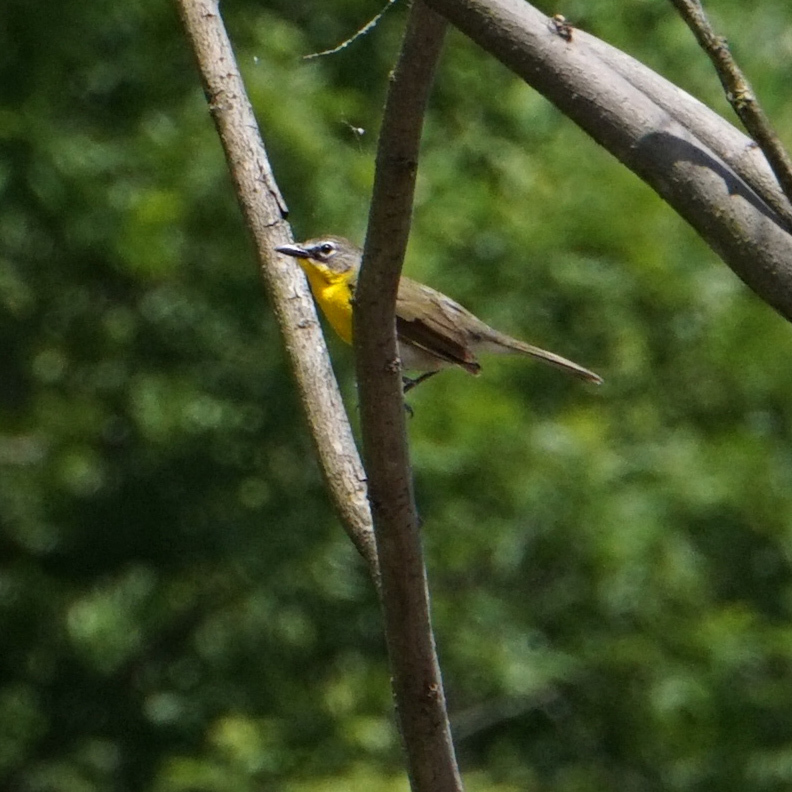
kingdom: Animalia
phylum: Chordata
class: Aves
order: Passeriformes
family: Parulidae
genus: Icteria
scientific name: Icteria virens
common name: Yellow-breasted chat
